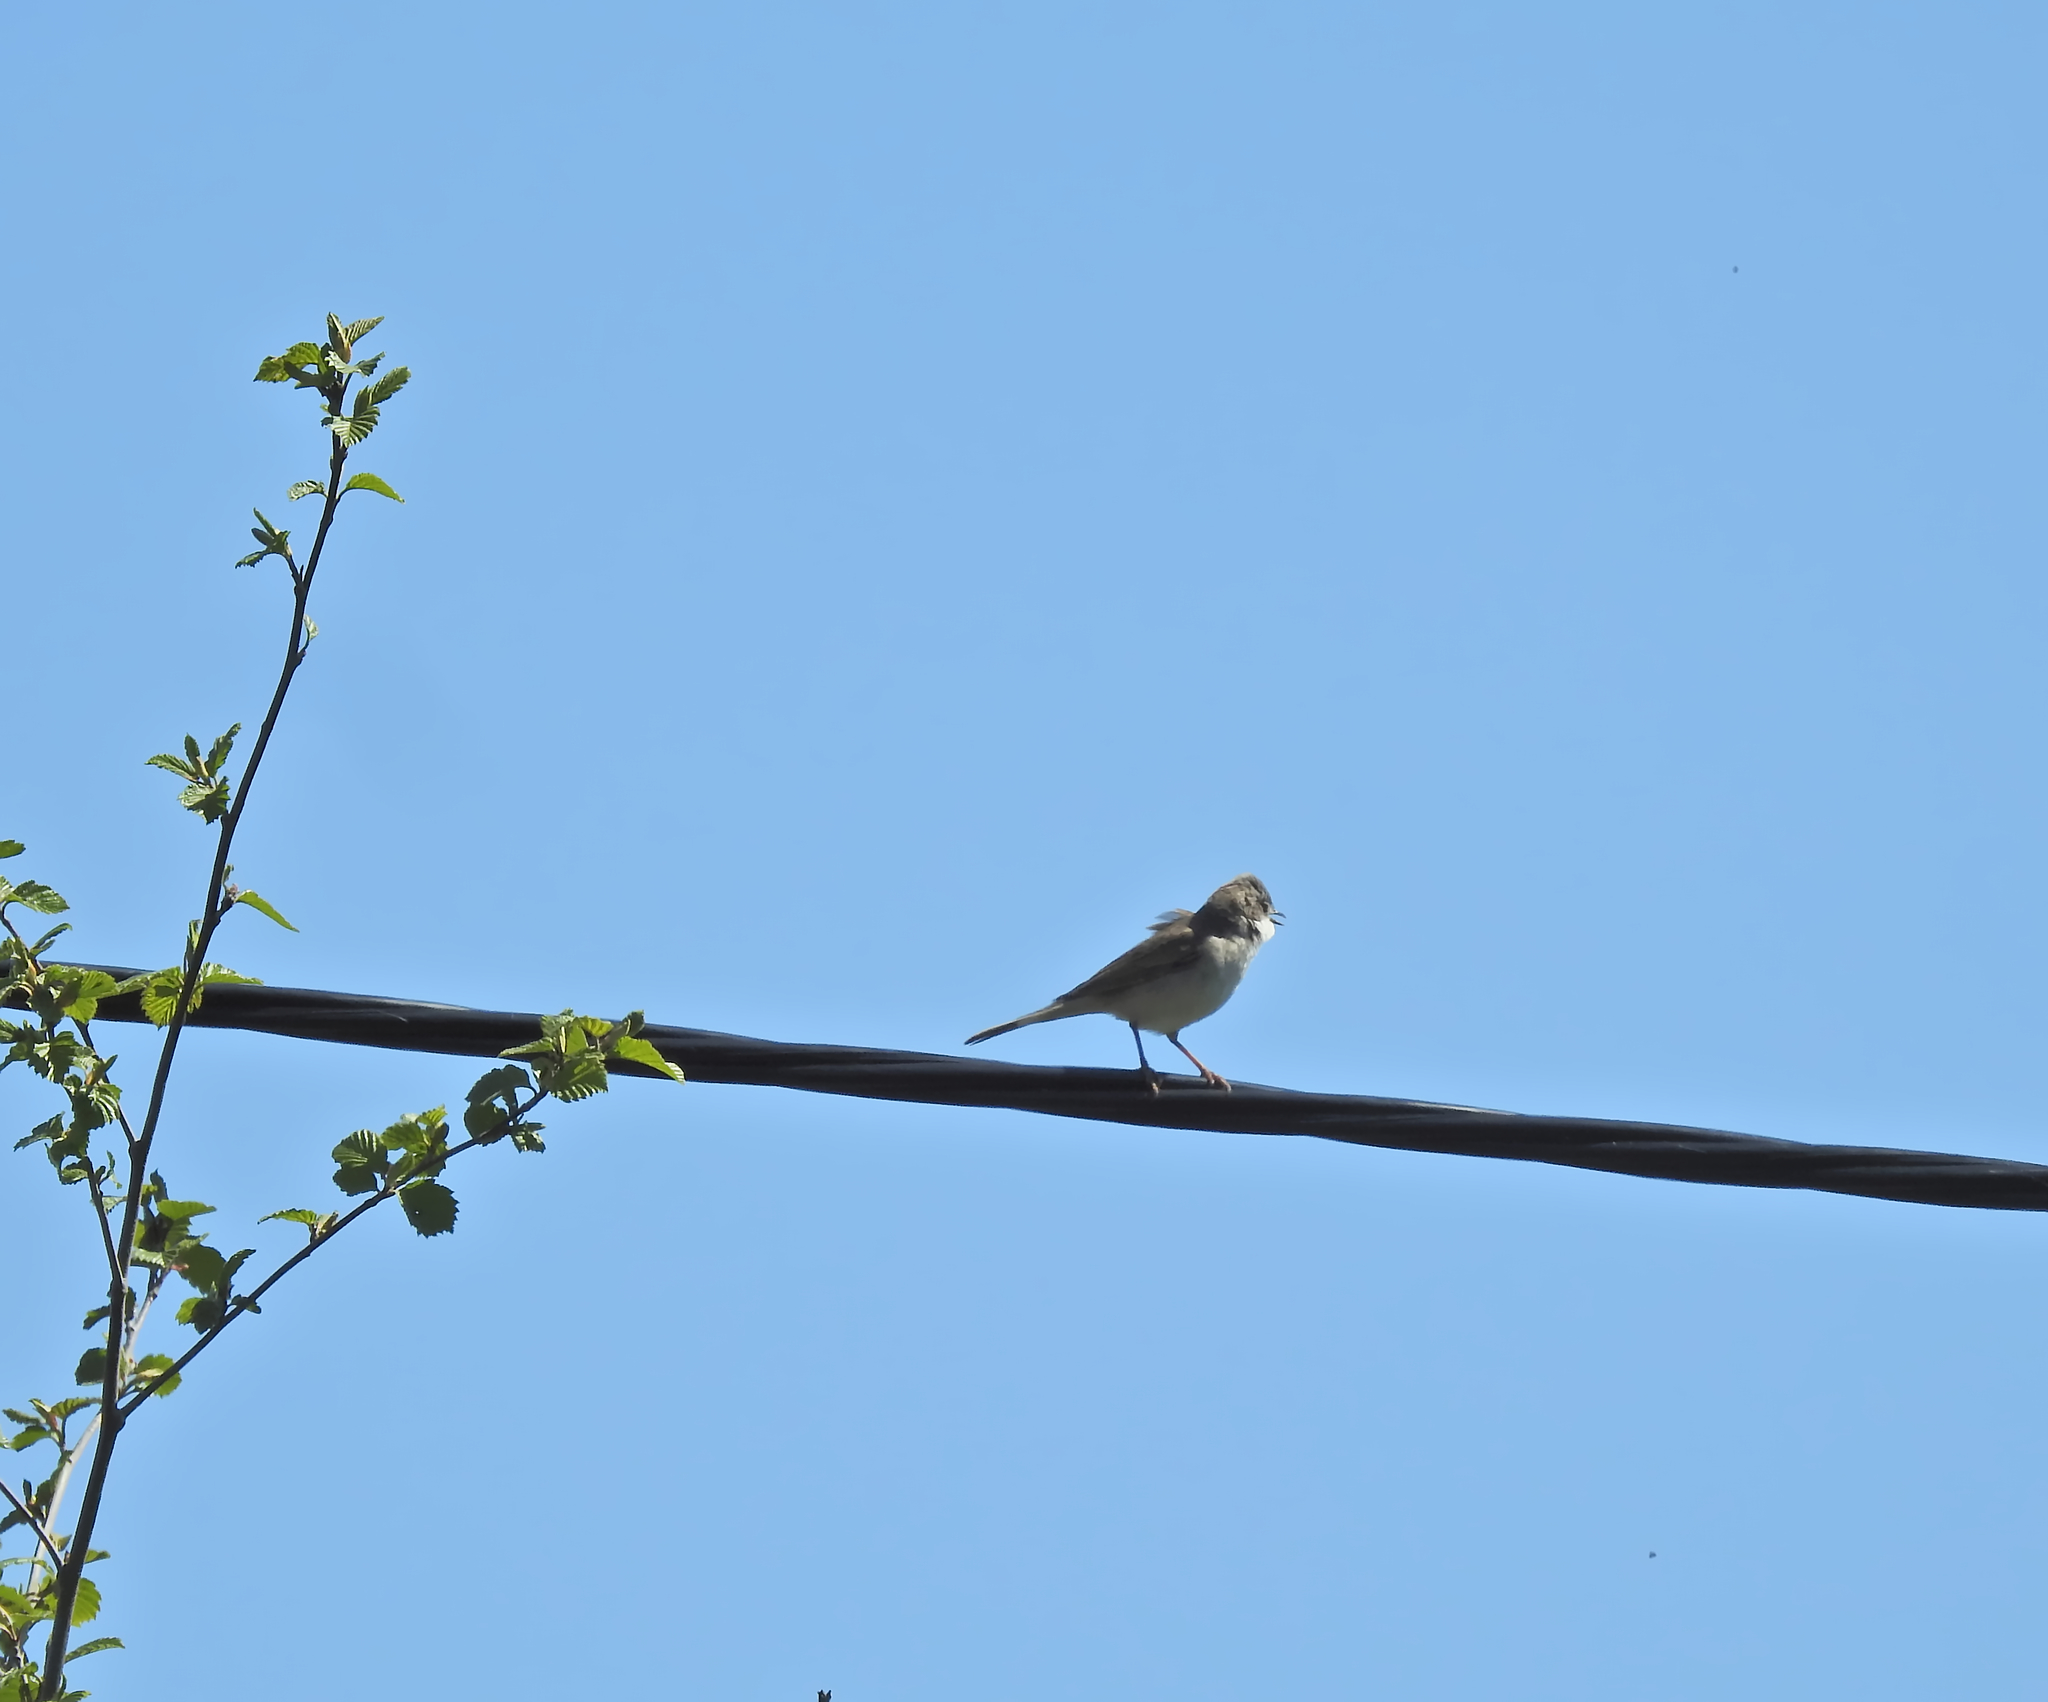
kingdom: Animalia
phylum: Chordata
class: Aves
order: Passeriformes
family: Sylviidae
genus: Sylvia
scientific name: Sylvia communis
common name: Common whitethroat
